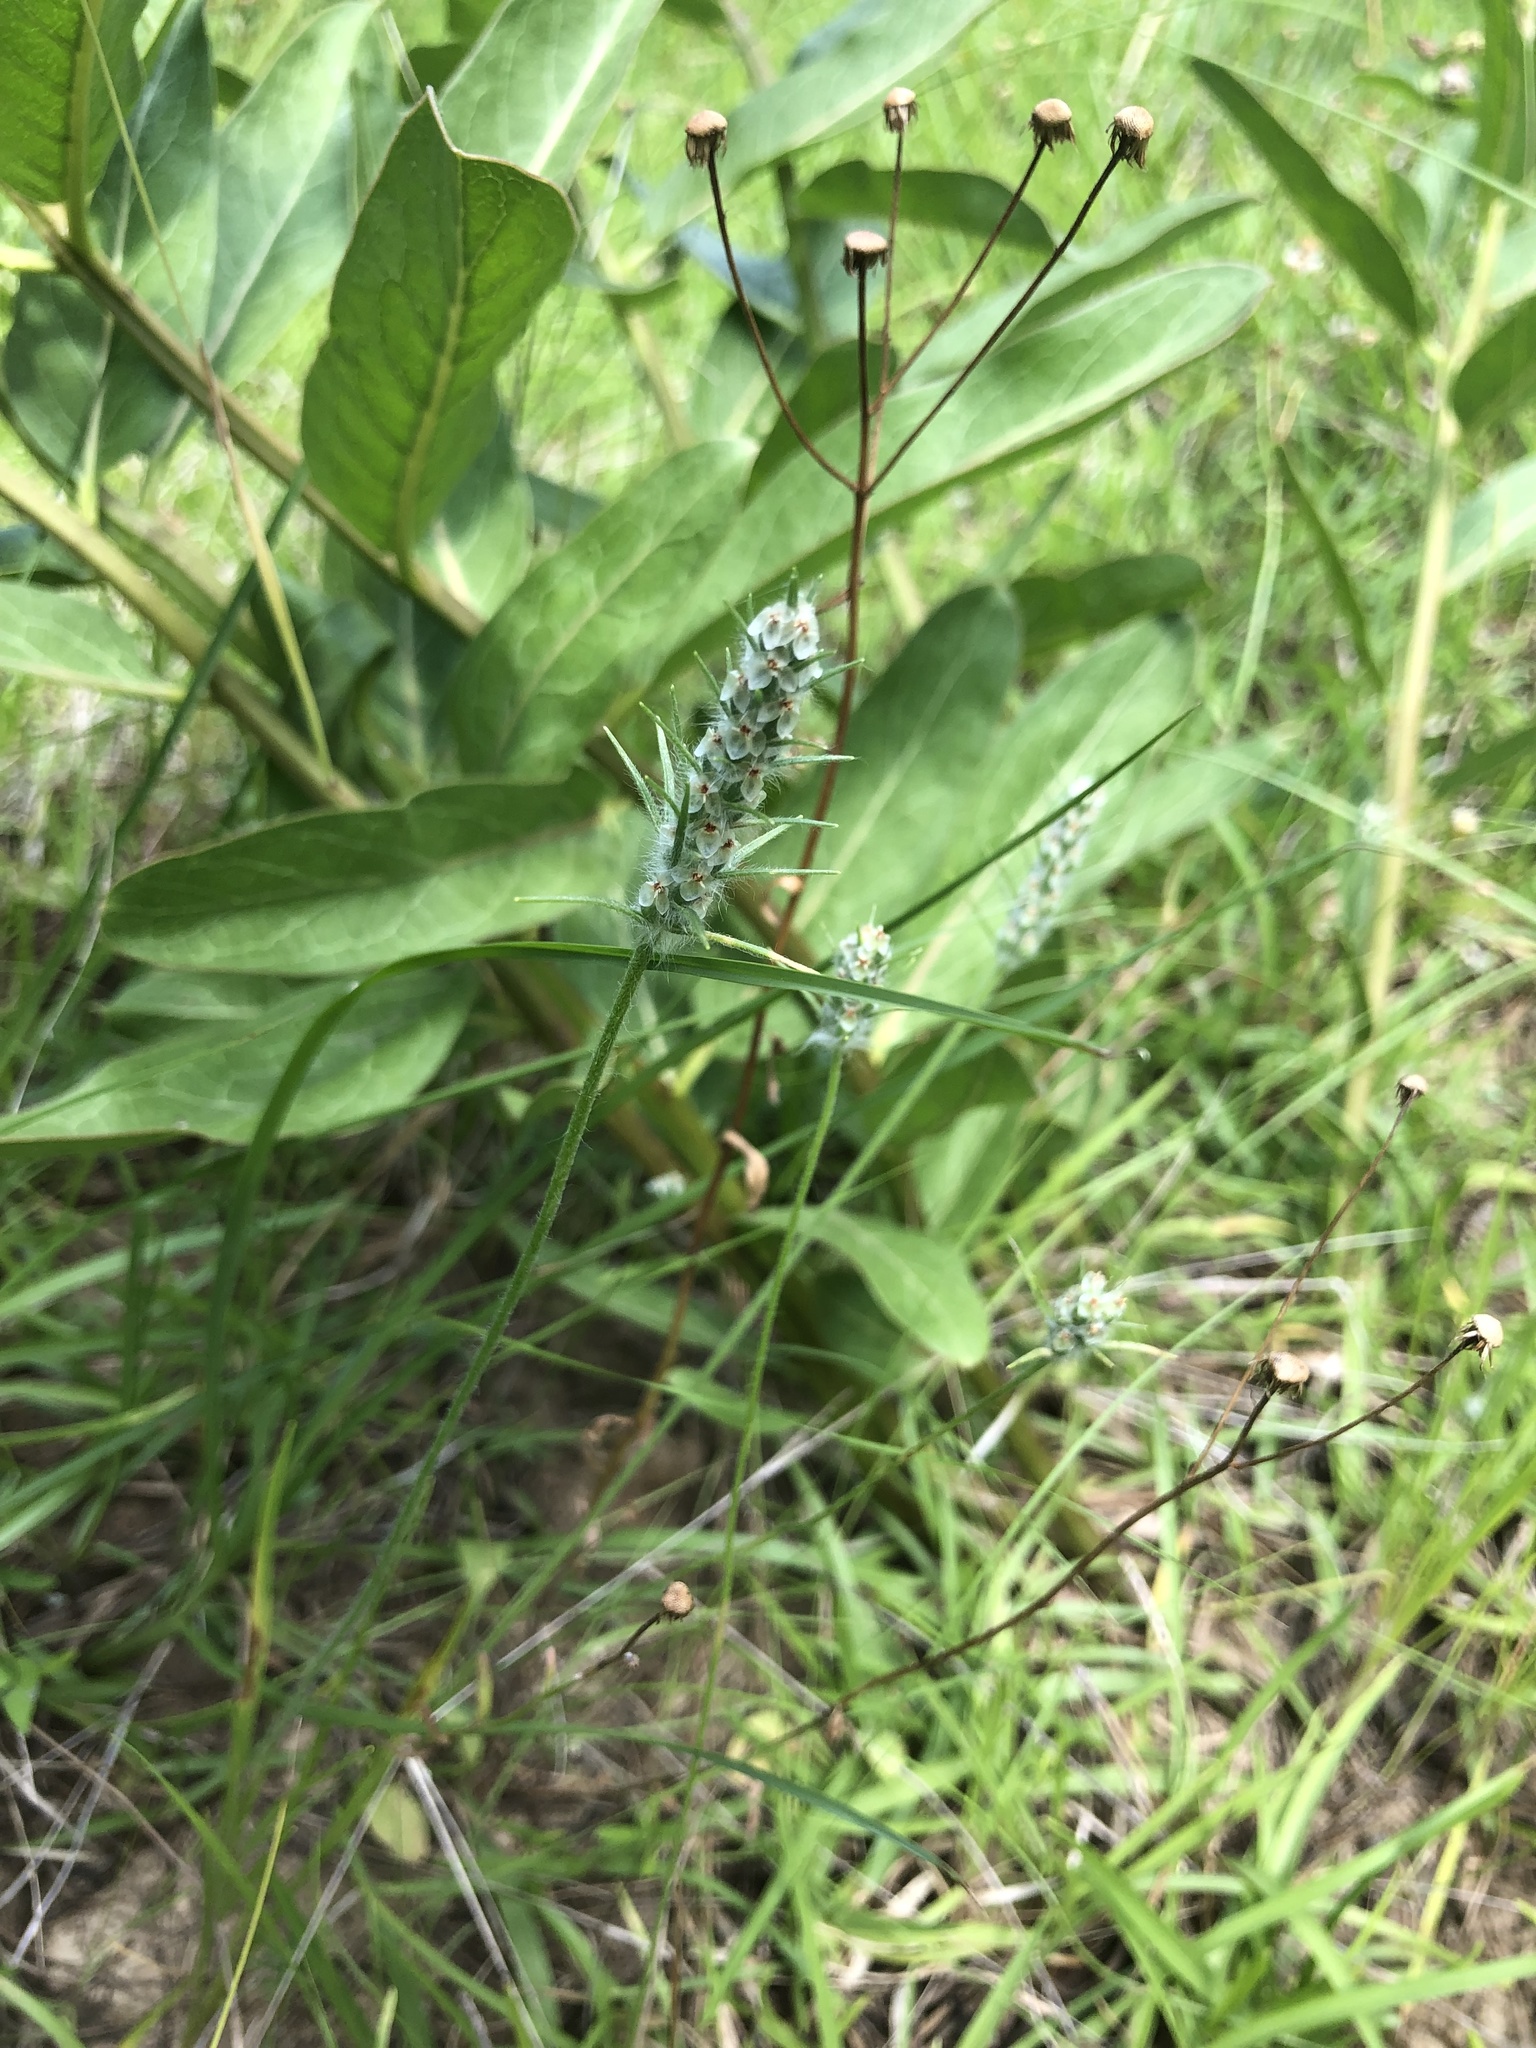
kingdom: Plantae
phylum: Tracheophyta
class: Magnoliopsida
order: Lamiales
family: Plantaginaceae
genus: Plantago
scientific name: Plantago aristata
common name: Bracted plantain
